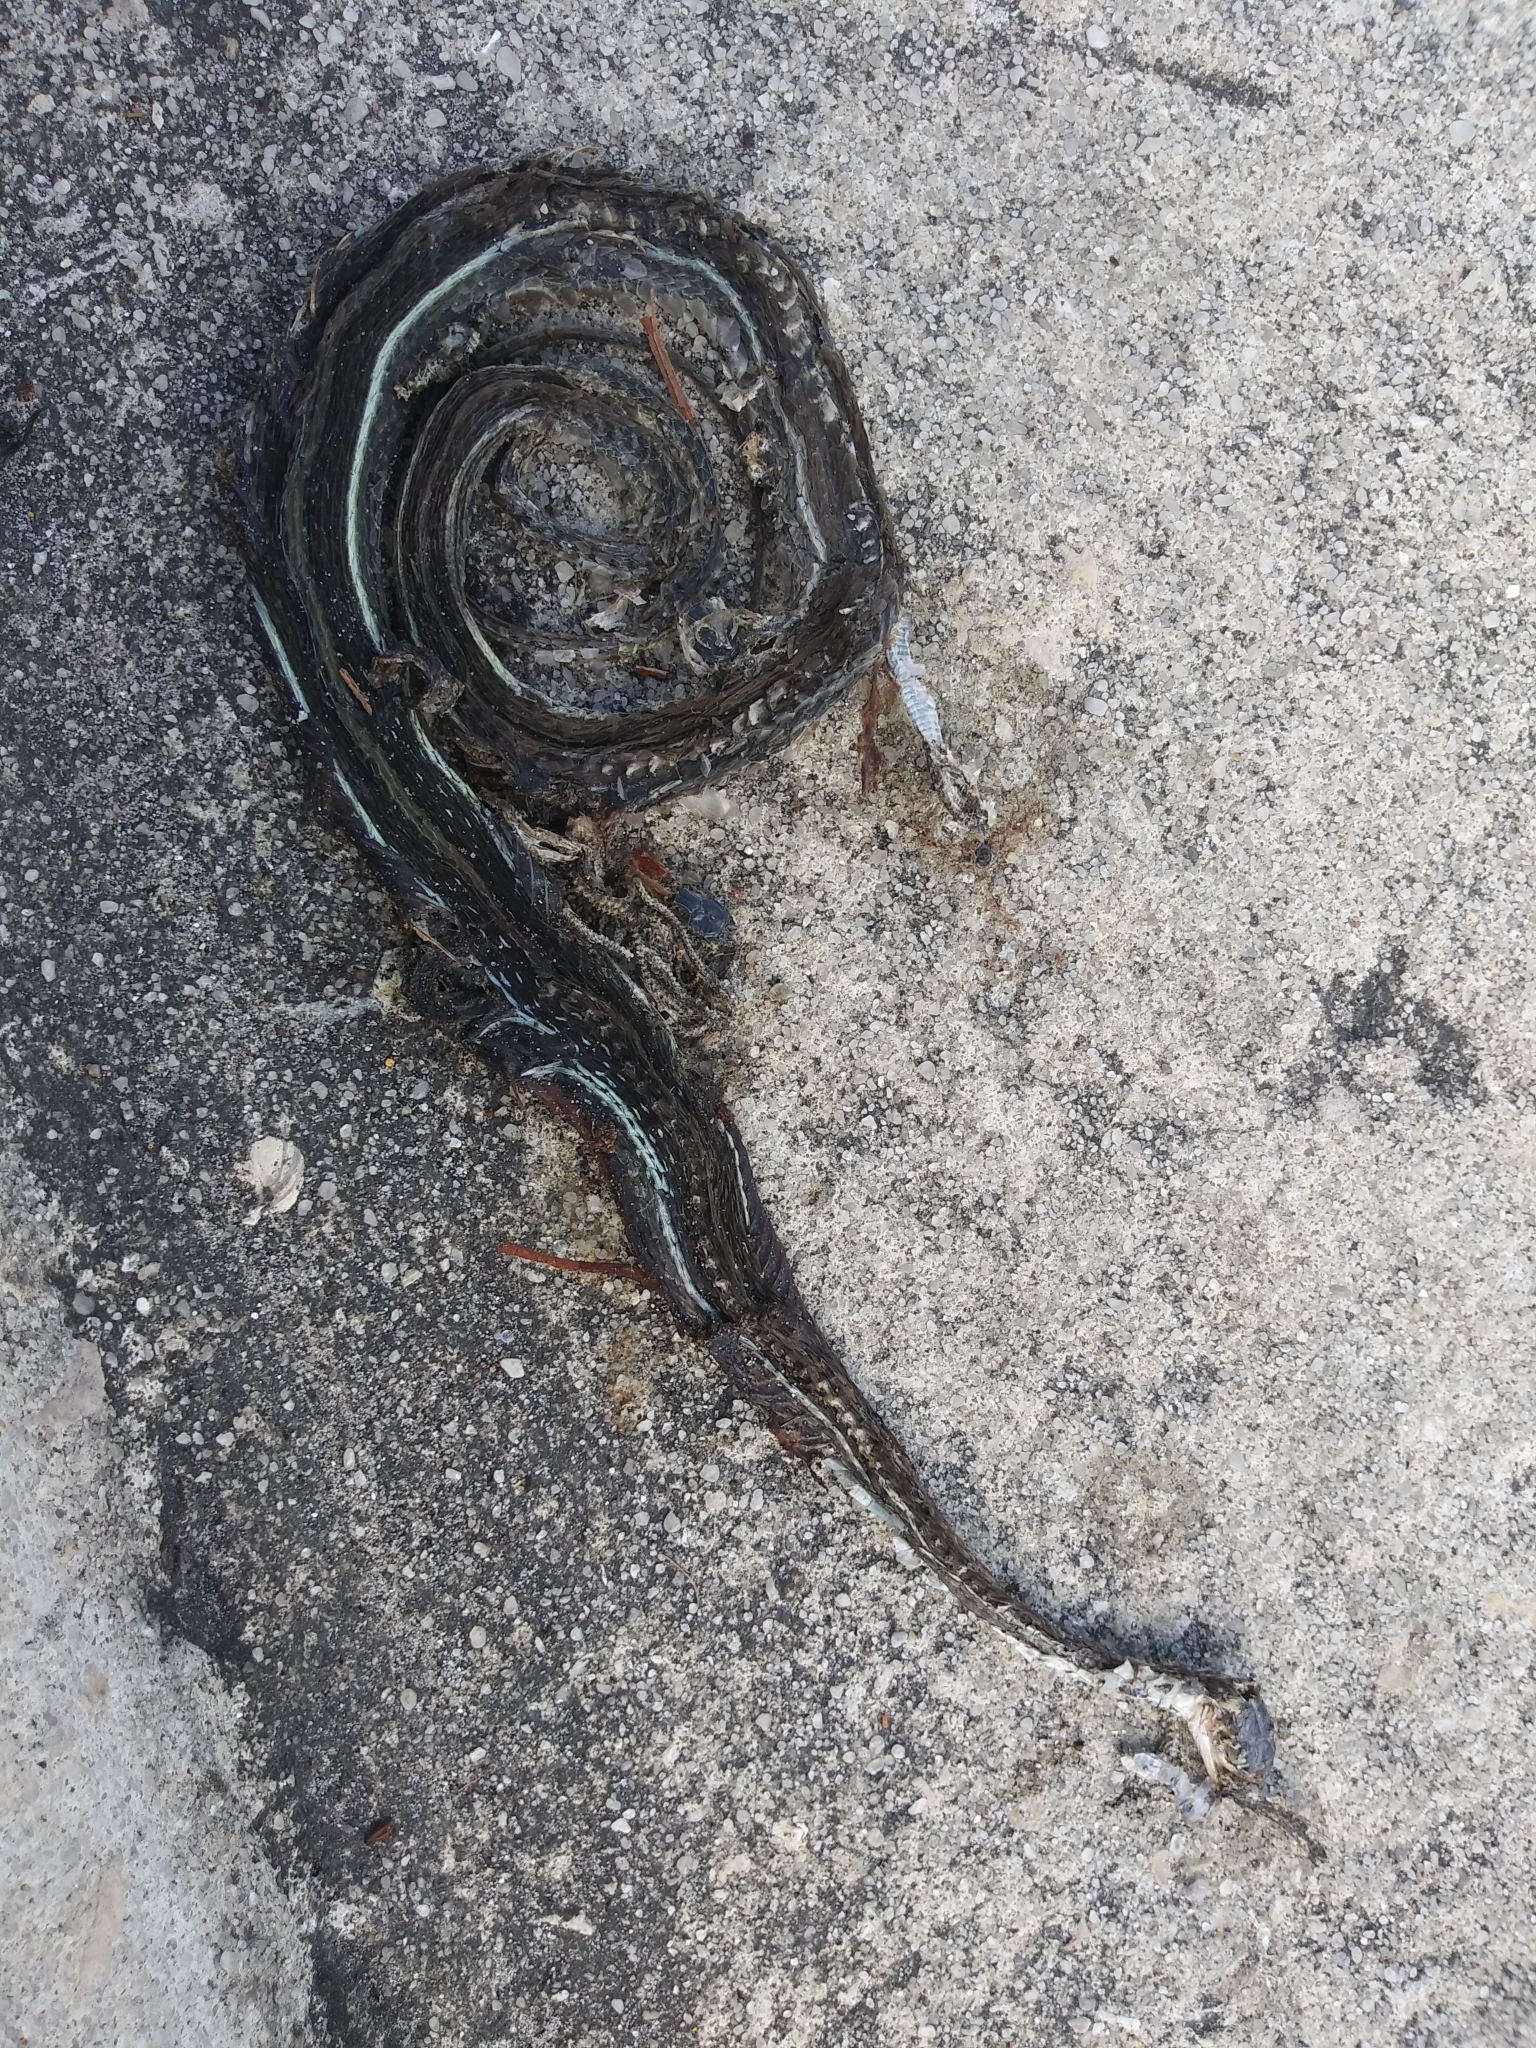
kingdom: Animalia
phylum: Chordata
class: Squamata
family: Colubridae
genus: Thamnophis
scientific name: Thamnophis saurita
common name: Eastern ribbonsnake
